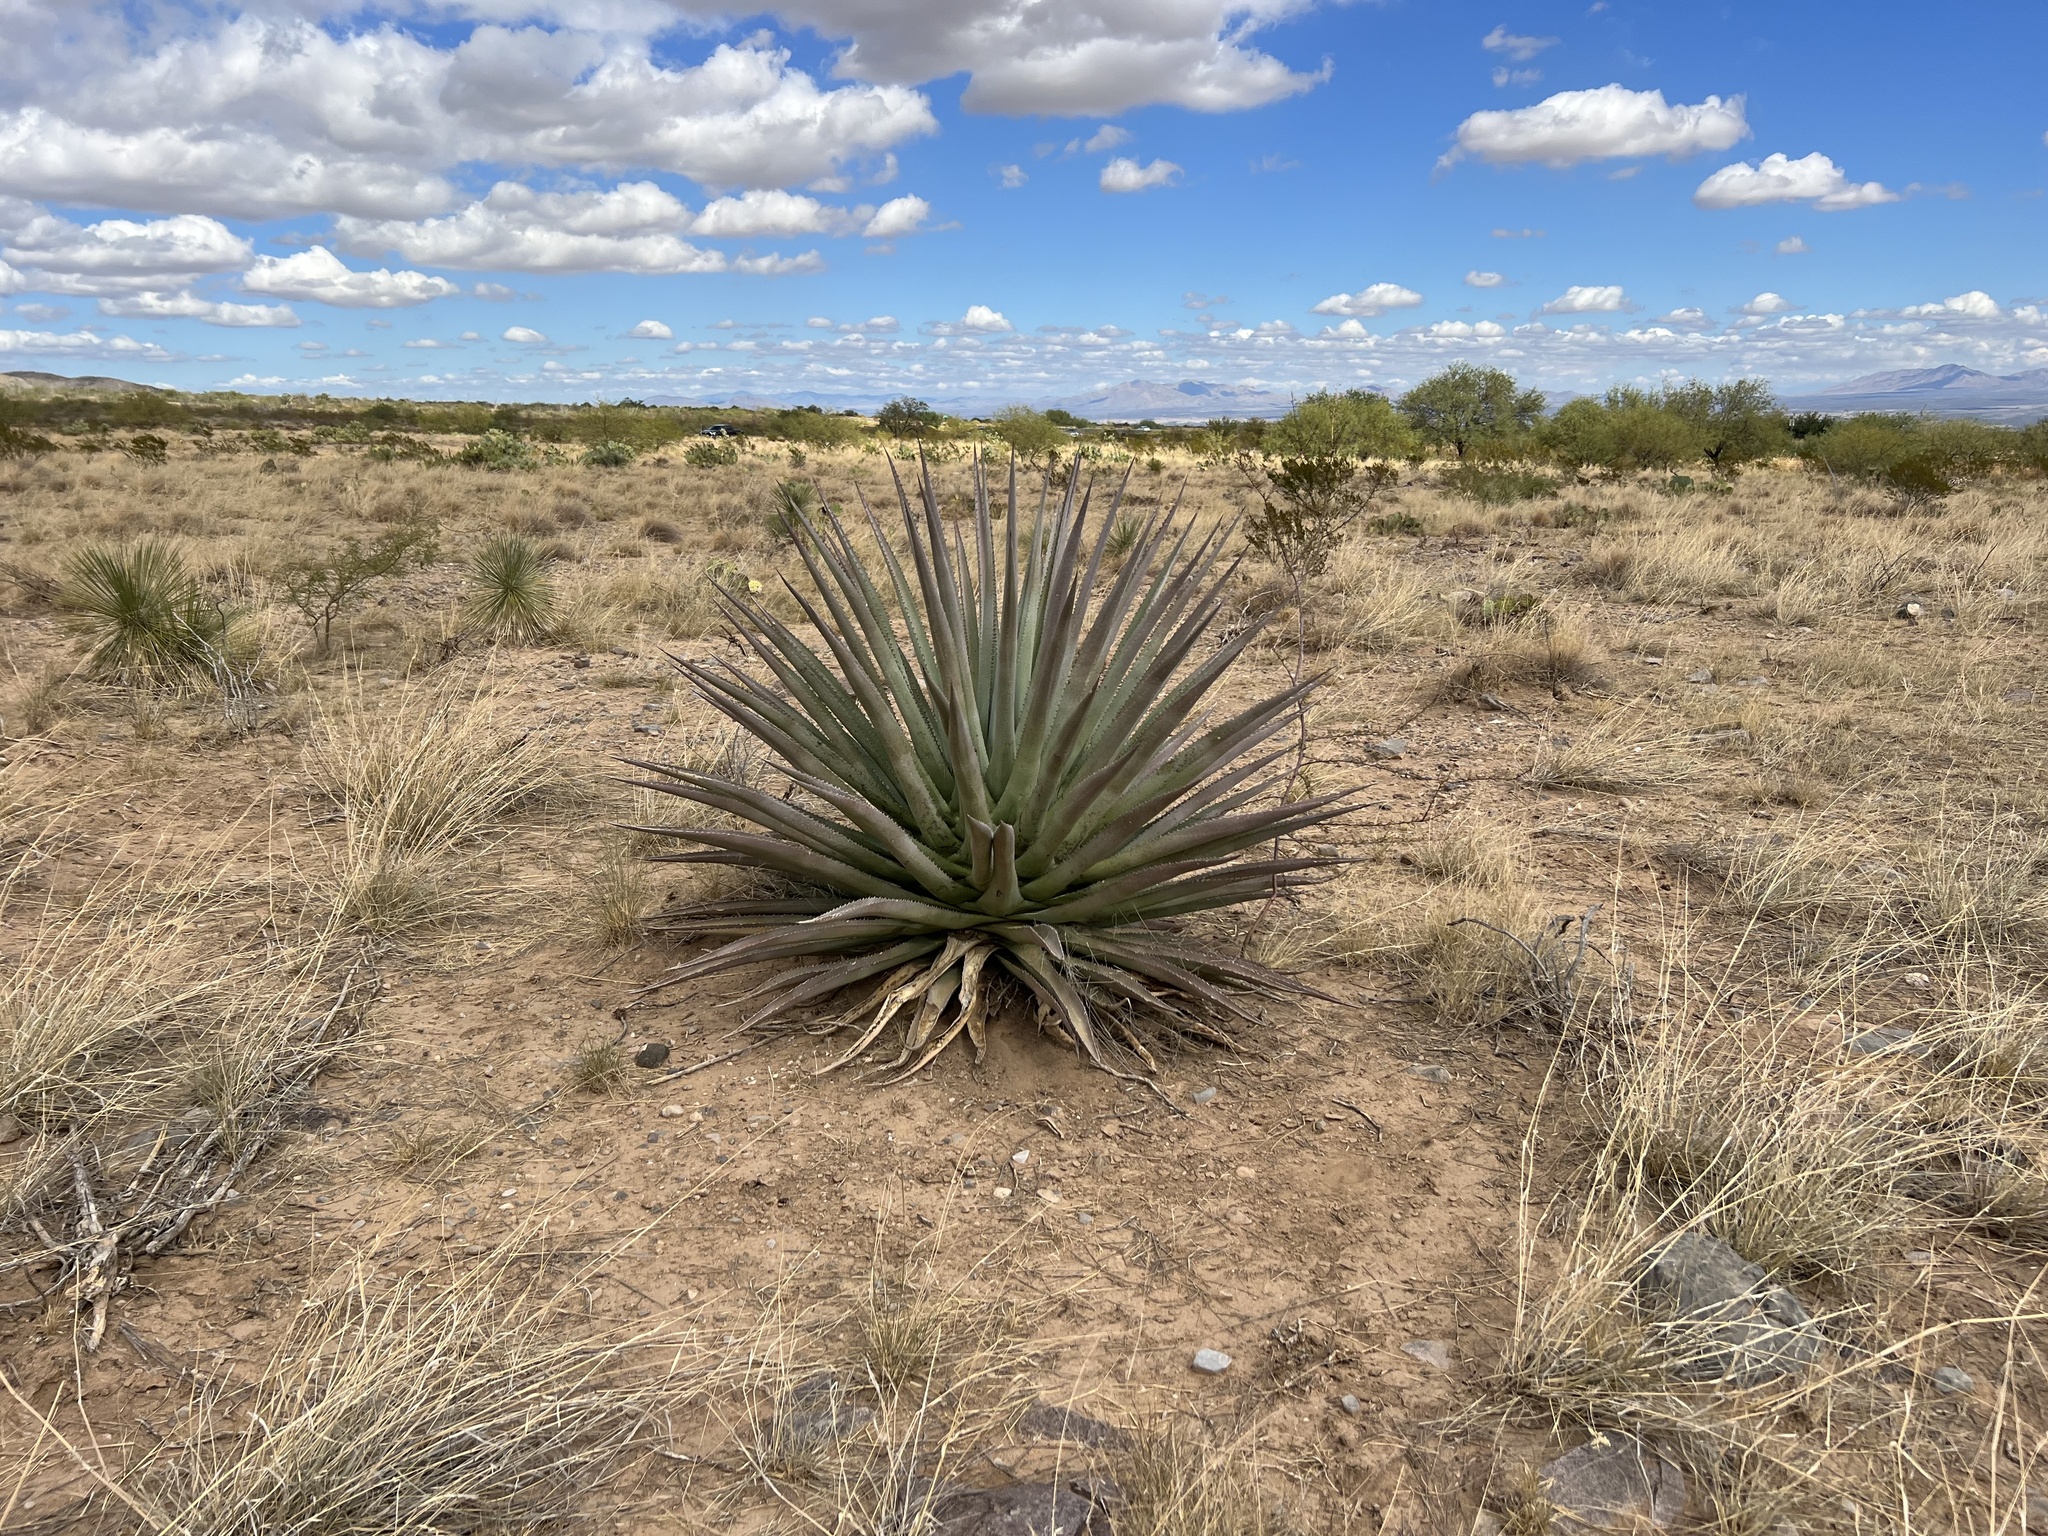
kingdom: Plantae
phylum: Tracheophyta
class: Liliopsida
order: Asparagales
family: Asparagaceae
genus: Agave
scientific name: Agave palmeri
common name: Palmer agave
